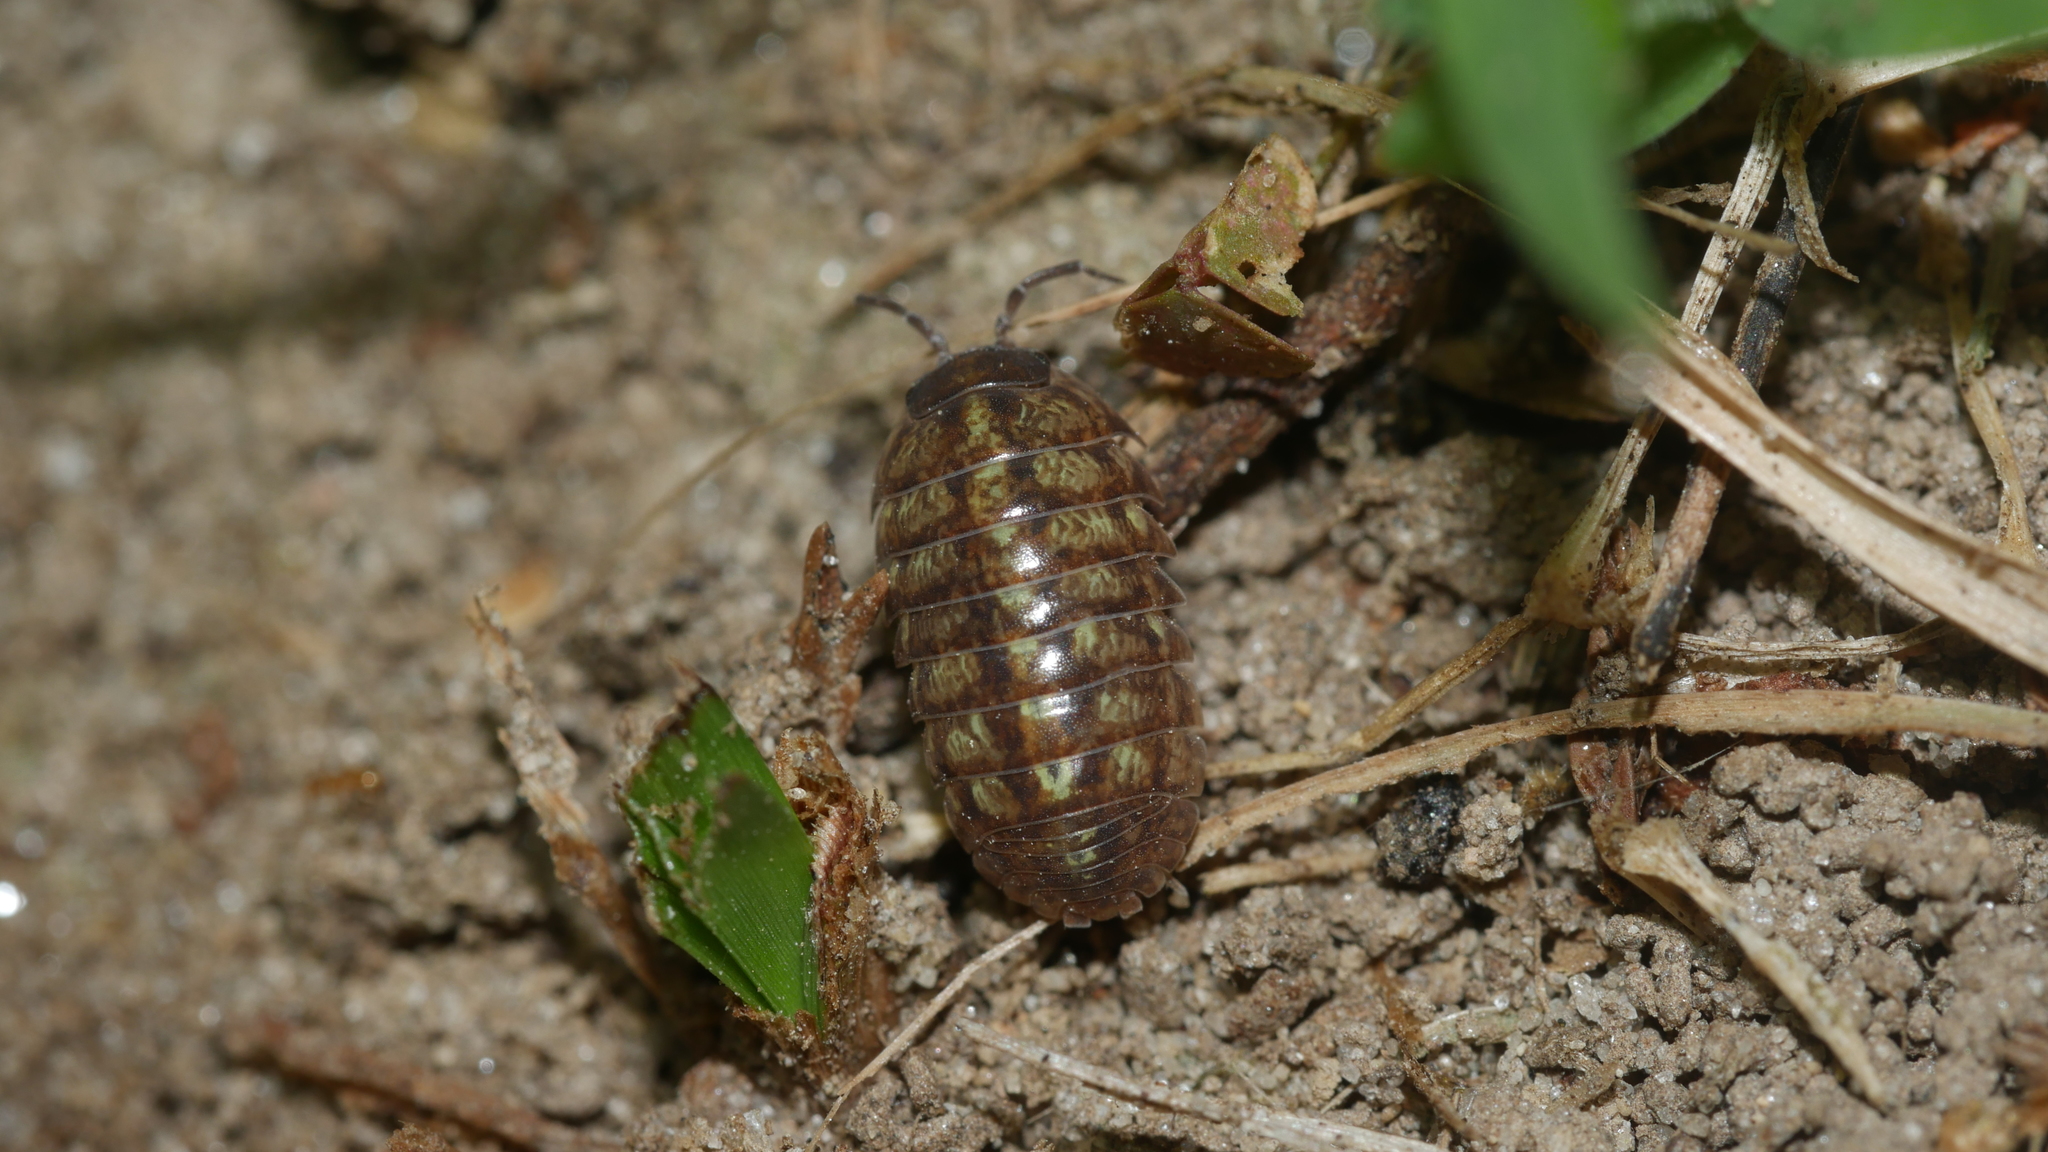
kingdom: Animalia
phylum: Arthropoda
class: Malacostraca
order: Isopoda
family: Armadillidiidae
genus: Armadillidium
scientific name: Armadillidium vulgare
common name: Common pill woodlouse
